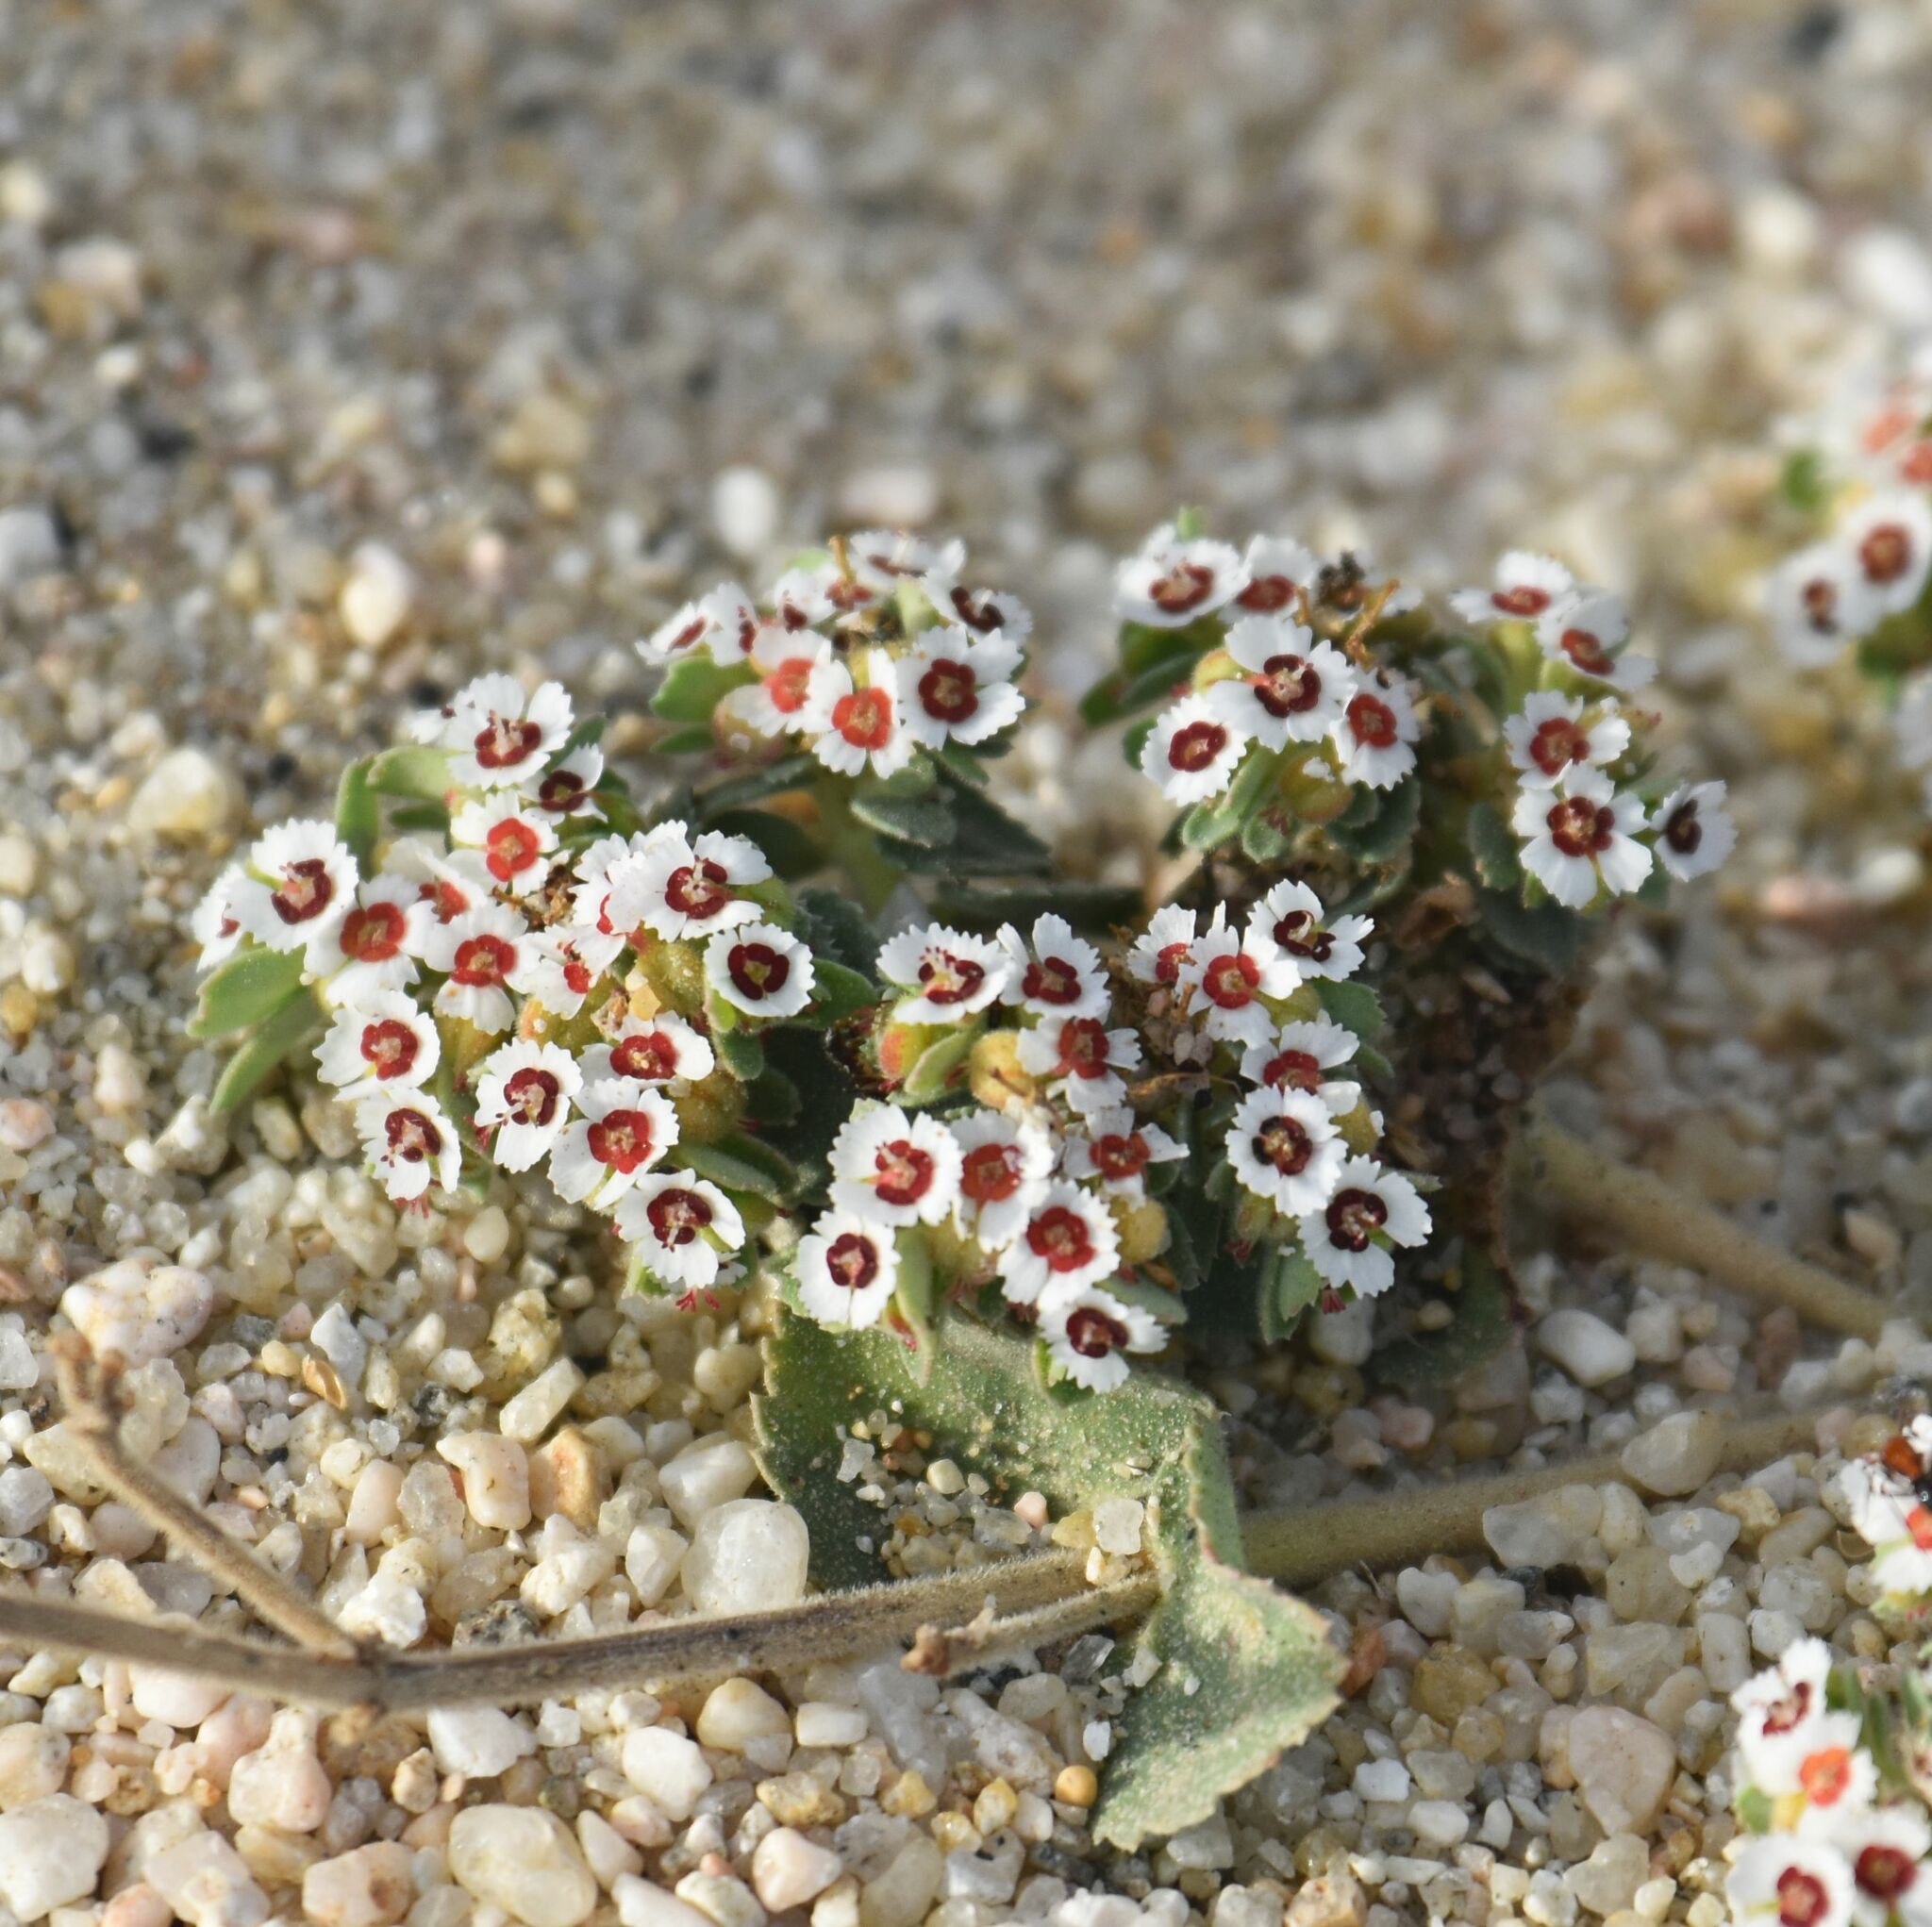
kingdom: Plantae
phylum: Tracheophyta
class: Magnoliopsida
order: Malpighiales
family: Euphorbiaceae
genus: Euphorbia
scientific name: Euphorbia leucophylla
